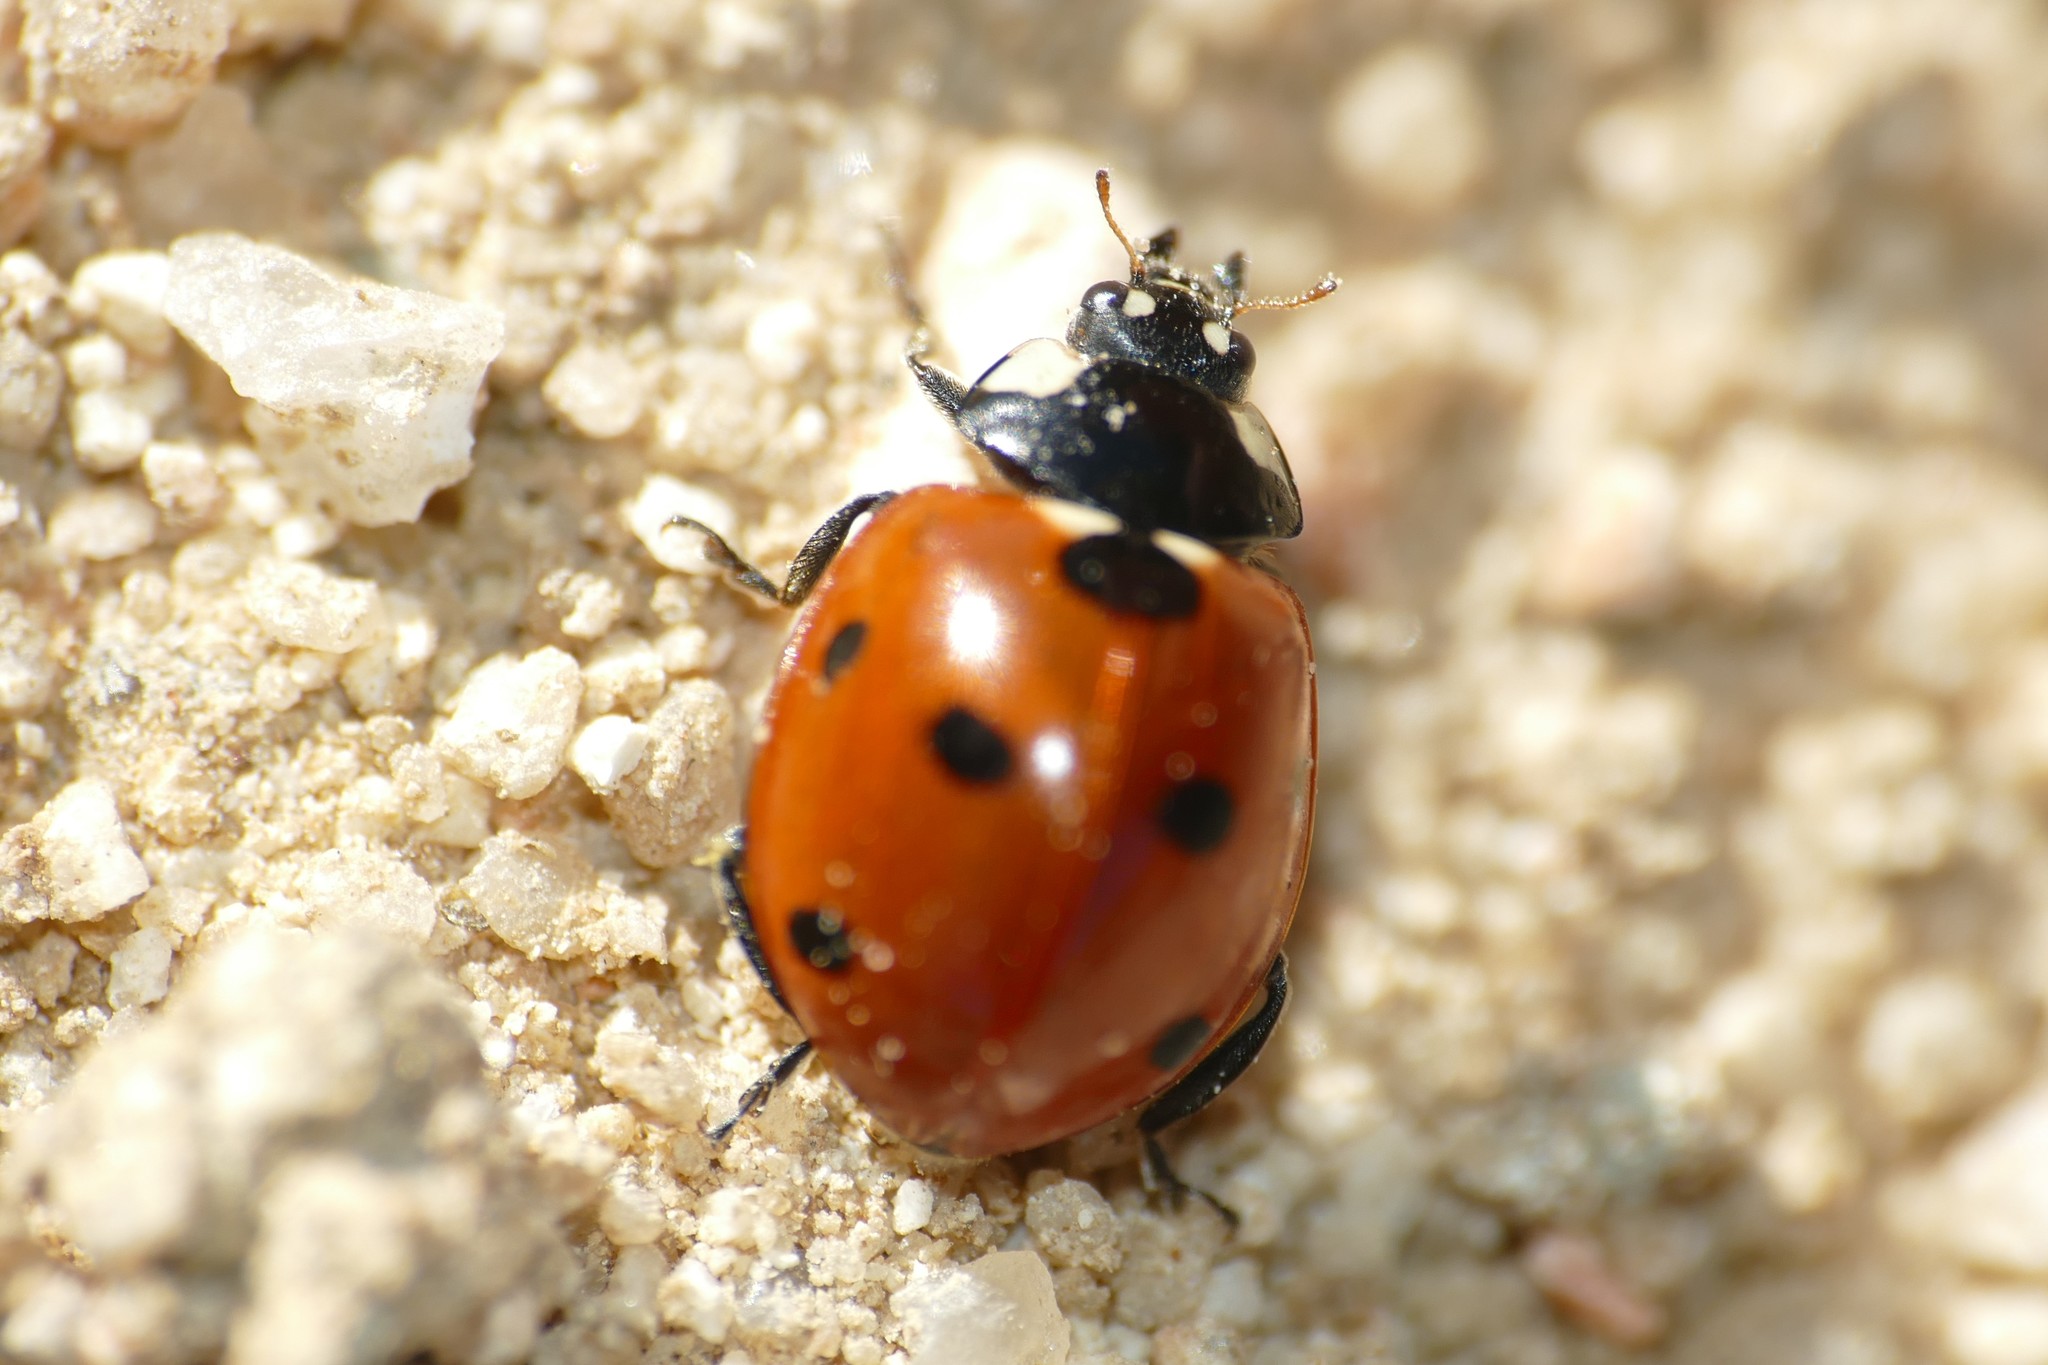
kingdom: Animalia
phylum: Arthropoda
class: Insecta
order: Coleoptera
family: Coccinellidae
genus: Coccinella
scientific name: Coccinella septempunctata
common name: Sevenspotted lady beetle
